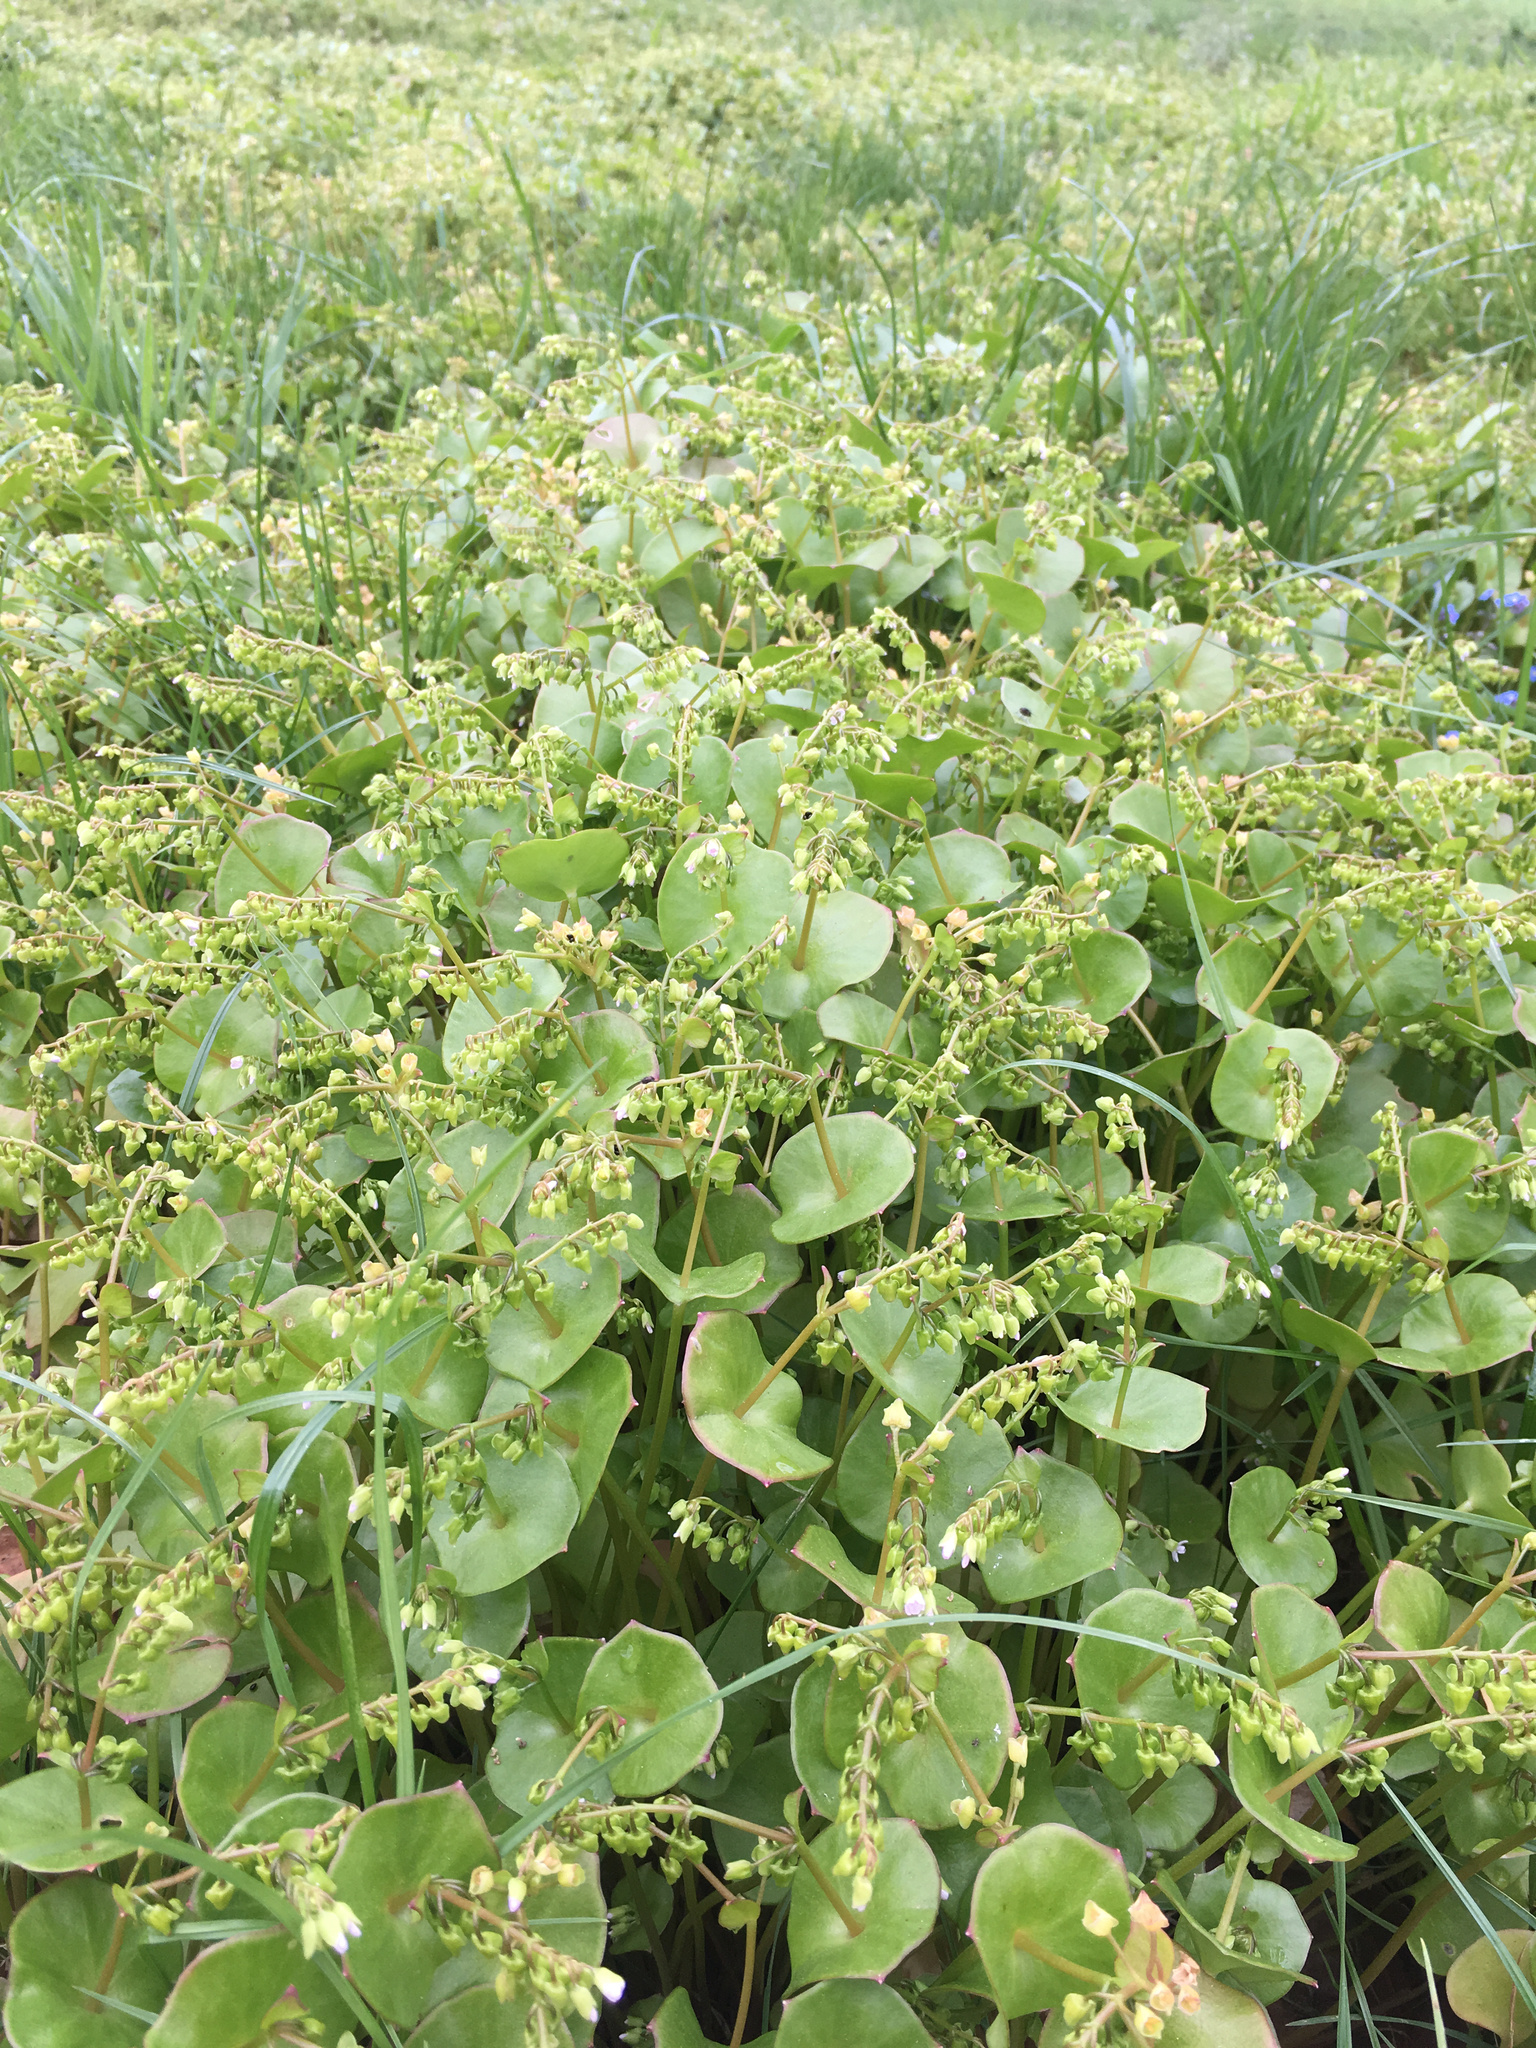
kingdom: Plantae
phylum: Tracheophyta
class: Magnoliopsida
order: Caryophyllales
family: Montiaceae
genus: Claytonia
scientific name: Claytonia perfoliata
